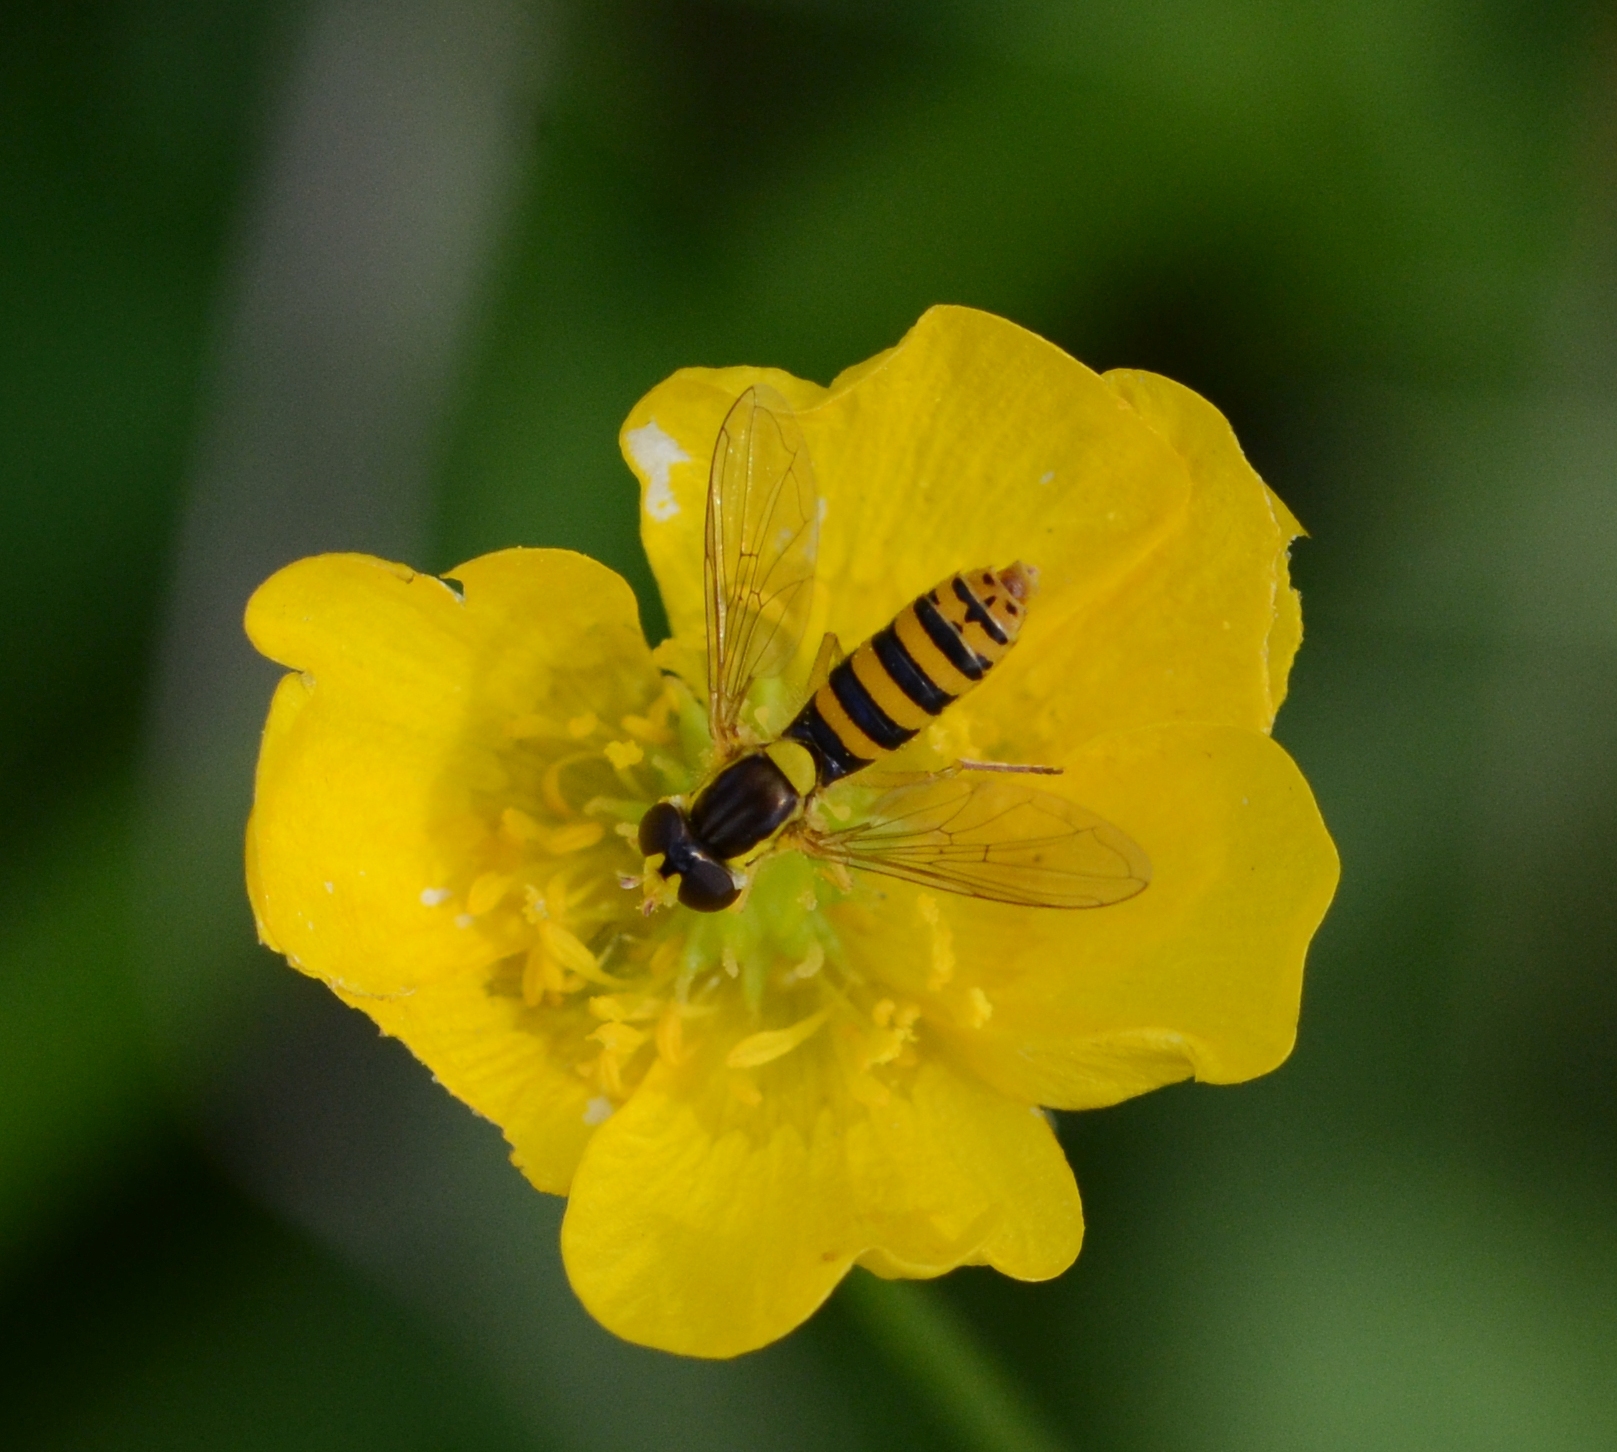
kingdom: Animalia
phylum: Arthropoda
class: Insecta
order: Diptera
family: Syrphidae
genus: Sphaerophoria
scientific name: Sphaerophoria
